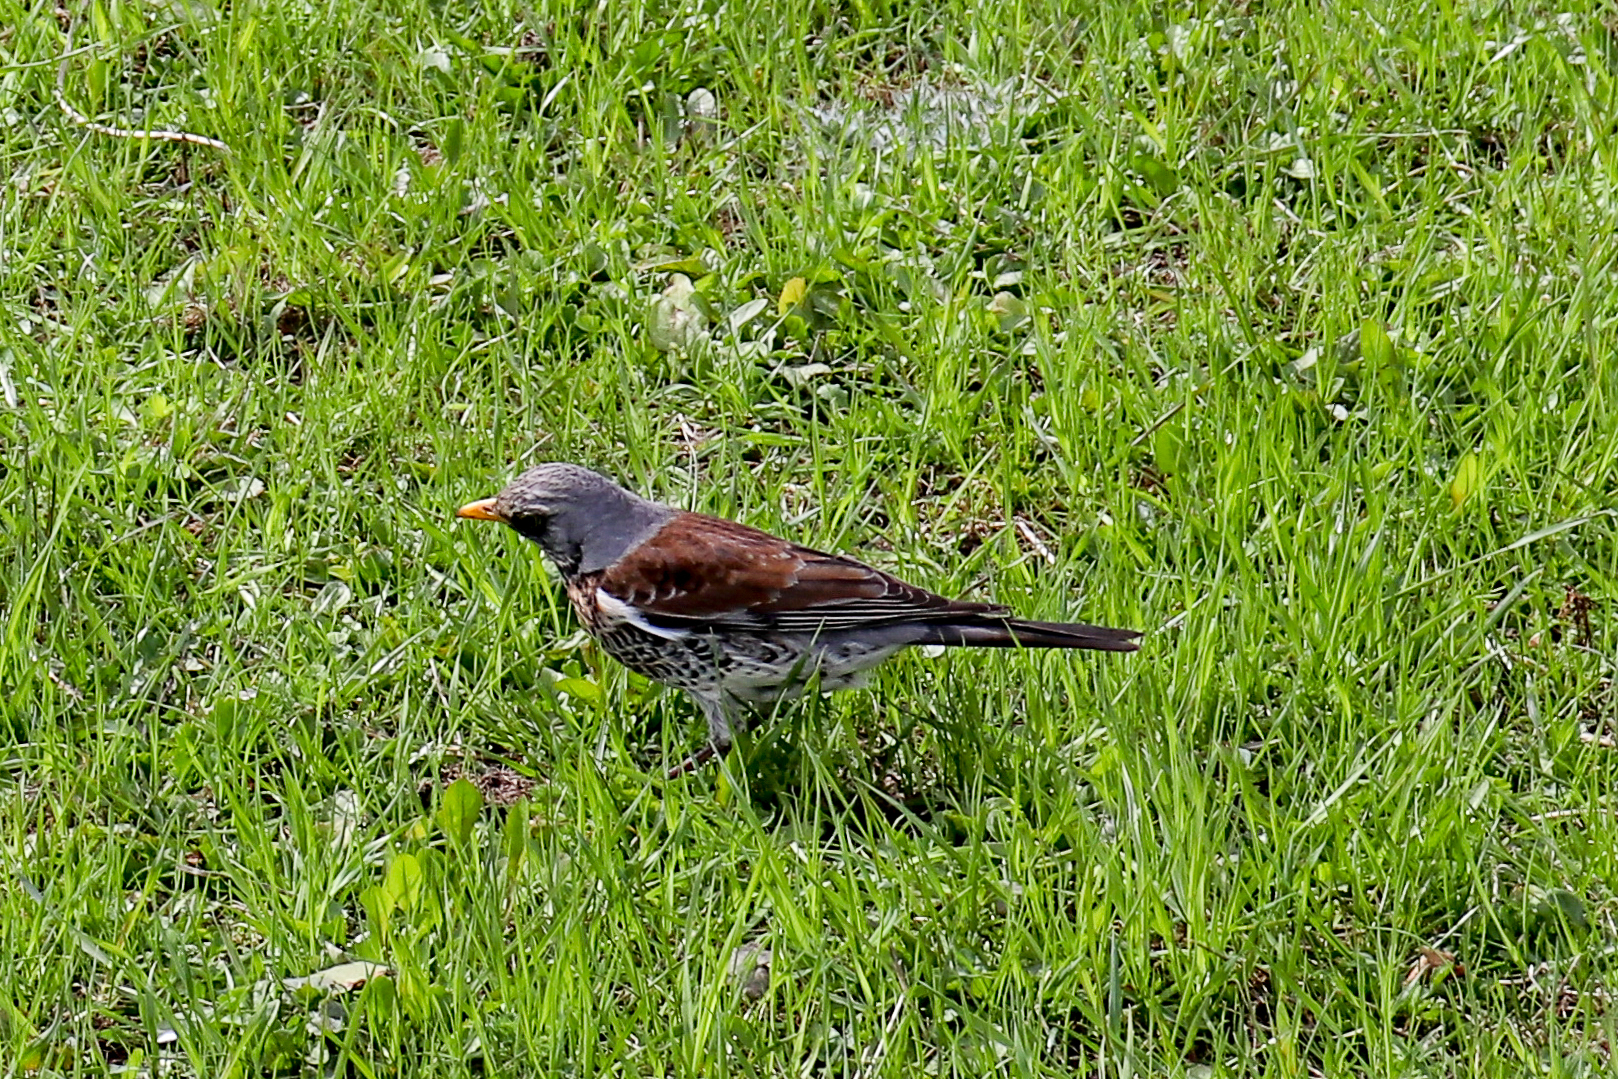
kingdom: Animalia
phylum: Chordata
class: Aves
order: Passeriformes
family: Turdidae
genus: Turdus
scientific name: Turdus pilaris
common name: Fieldfare
